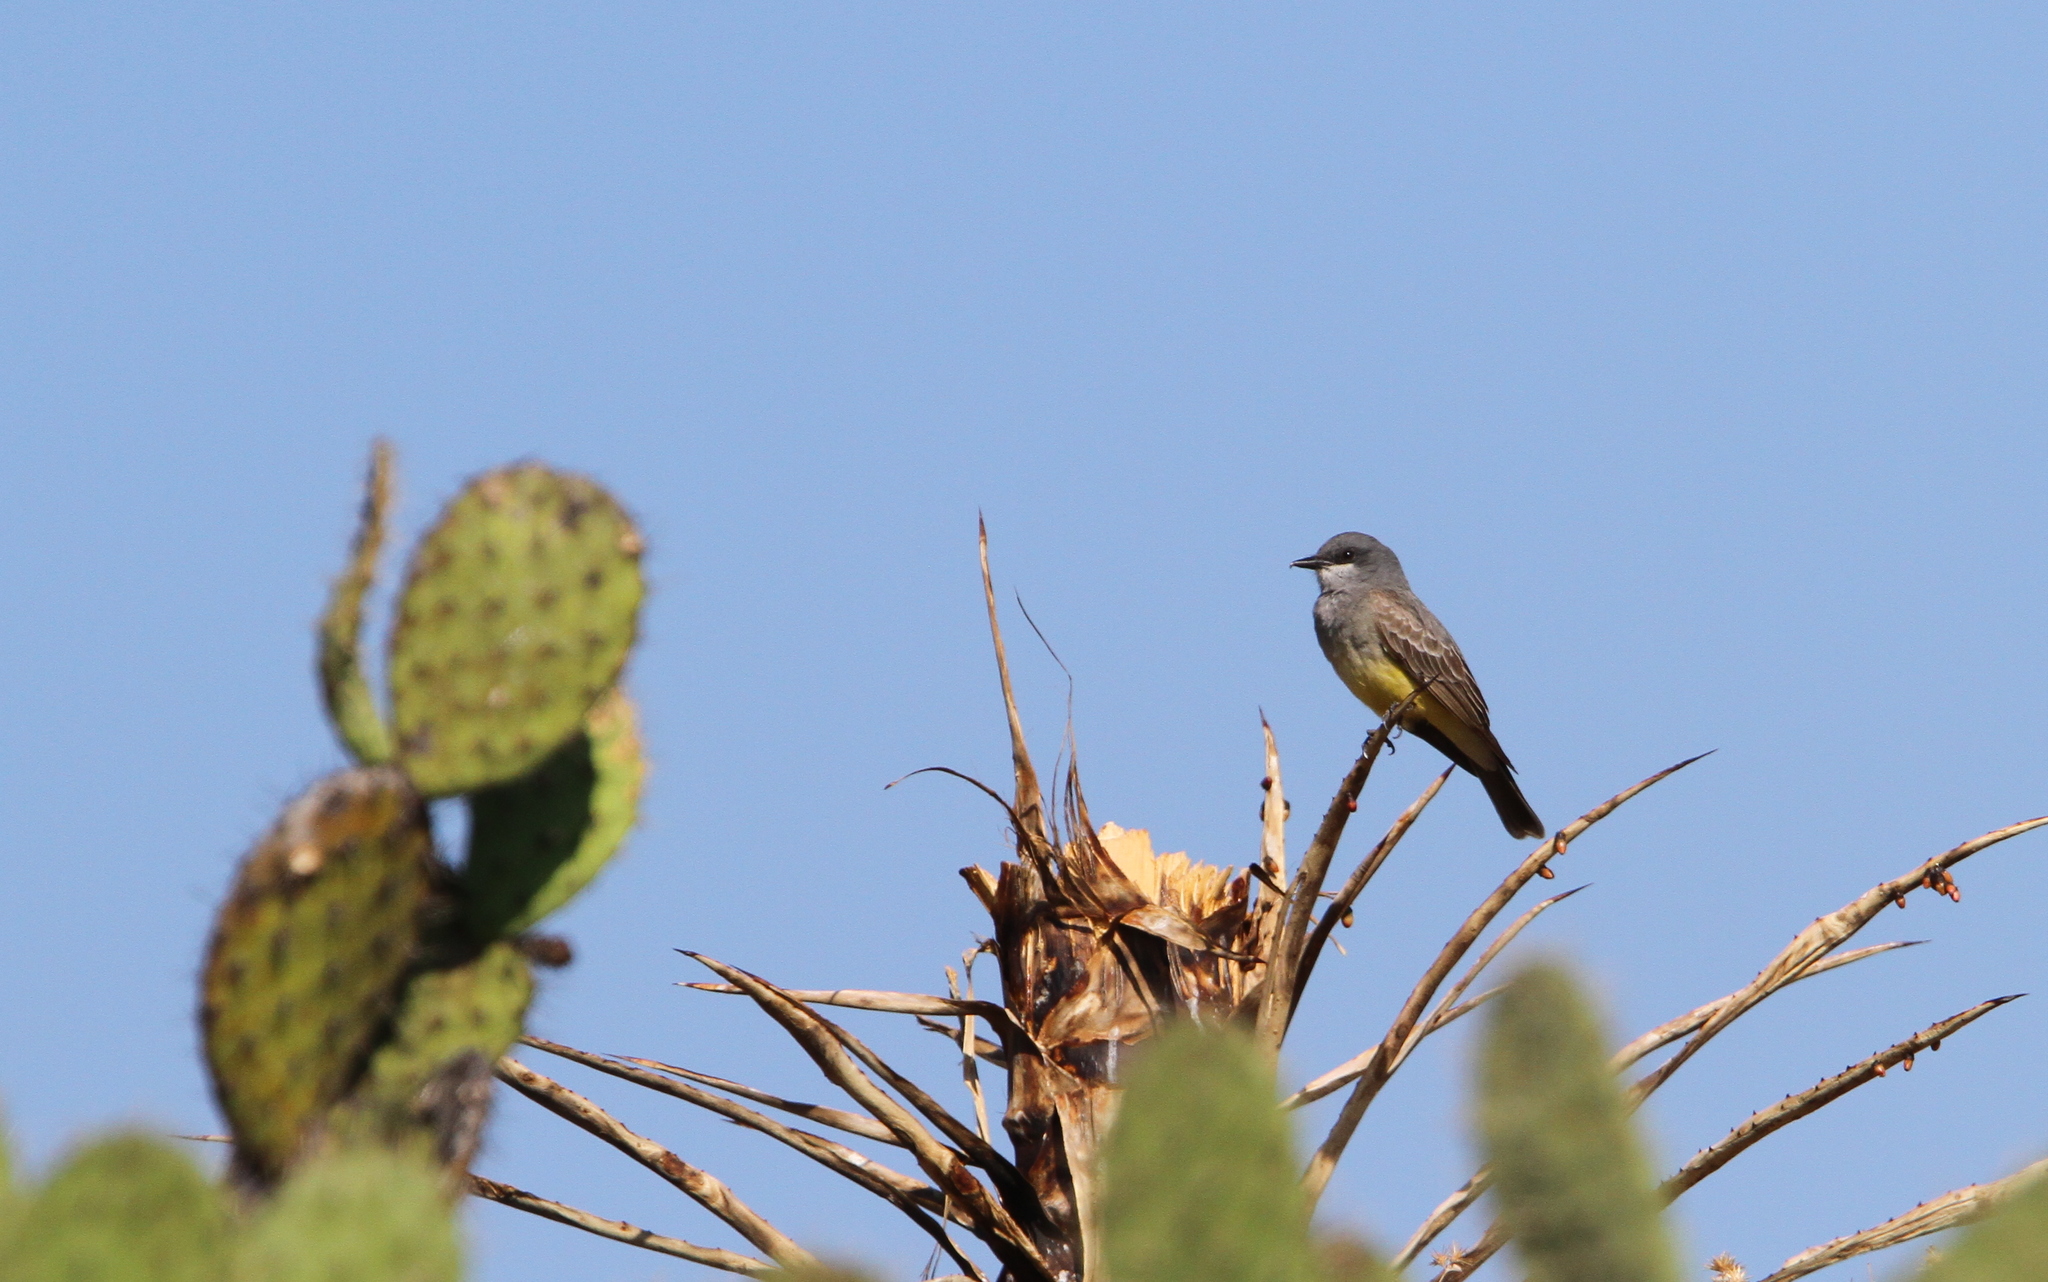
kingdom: Animalia
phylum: Chordata
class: Aves
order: Passeriformes
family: Tyrannidae
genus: Tyrannus
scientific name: Tyrannus vociferans
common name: Cassin's kingbird
